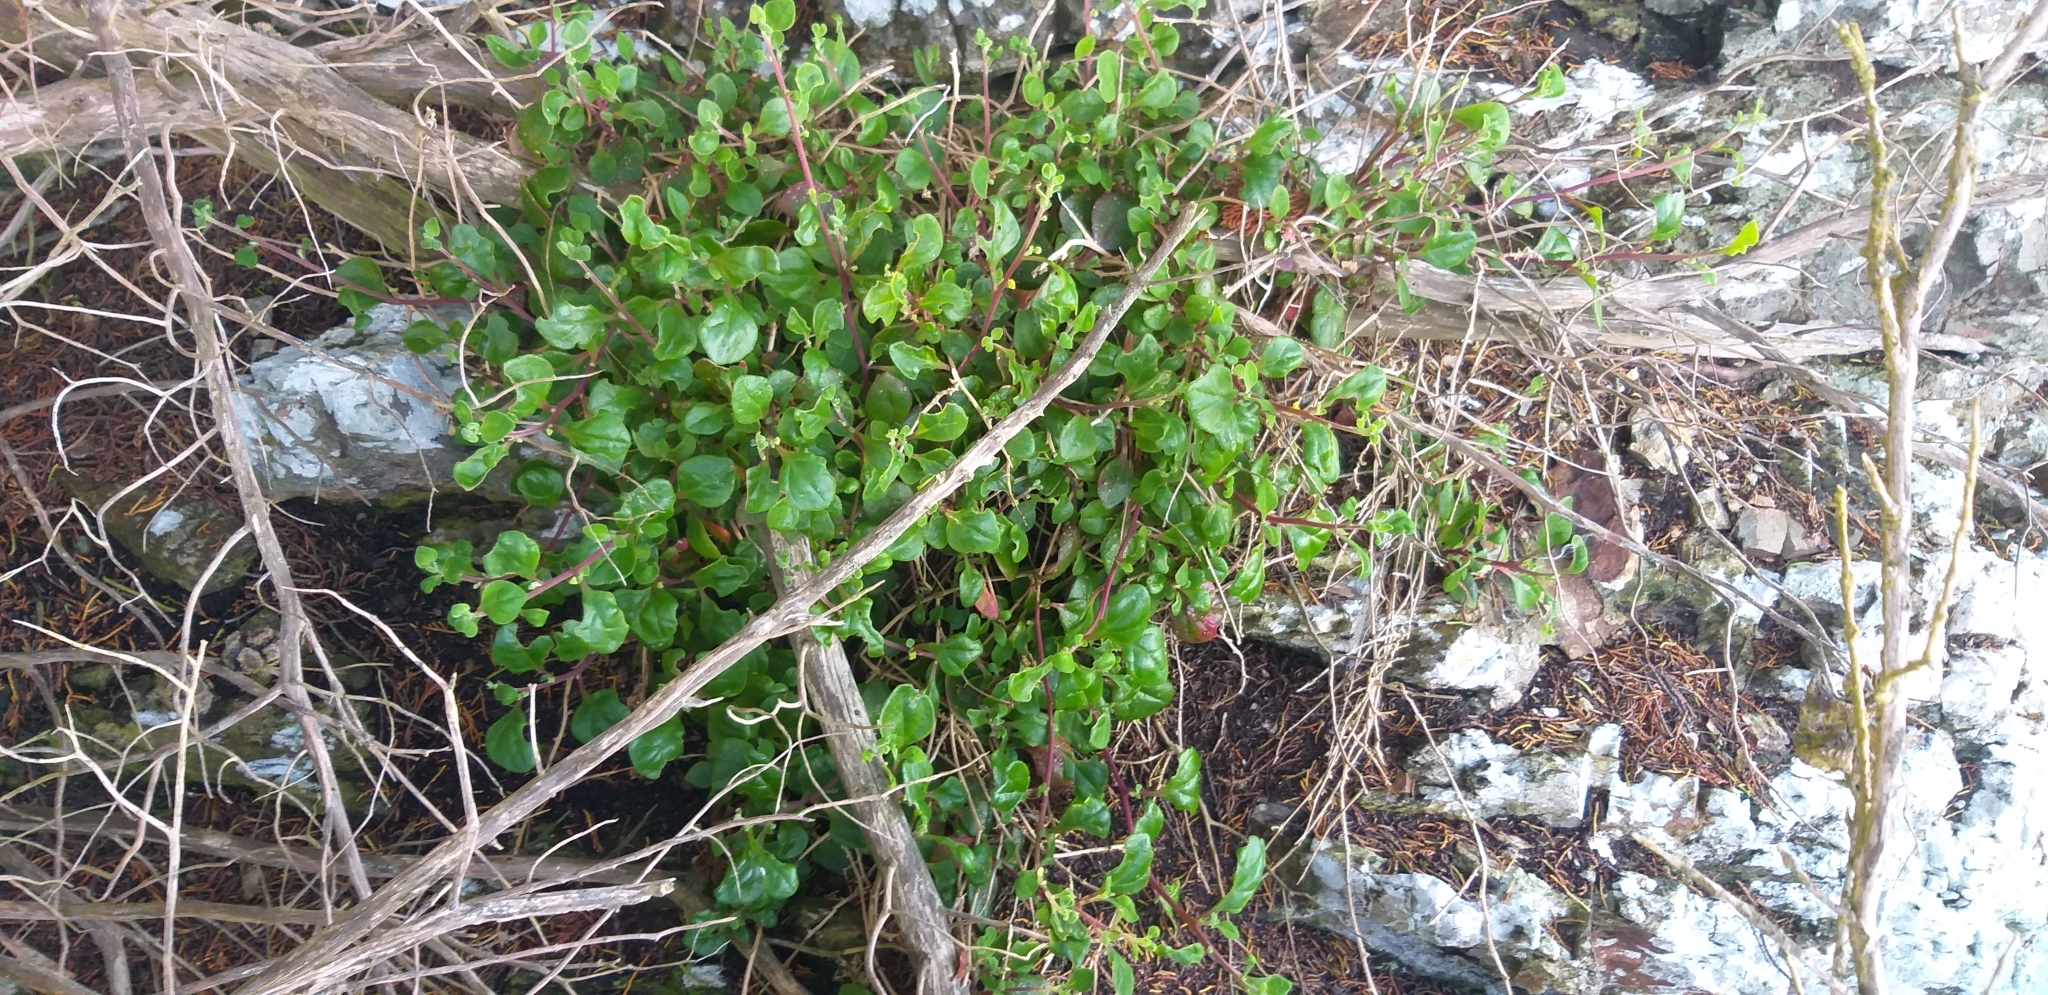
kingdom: Plantae
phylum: Tracheophyta
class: Magnoliopsida
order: Caryophyllales
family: Aizoaceae
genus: Tetragonia
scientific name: Tetragonia implexicoma
